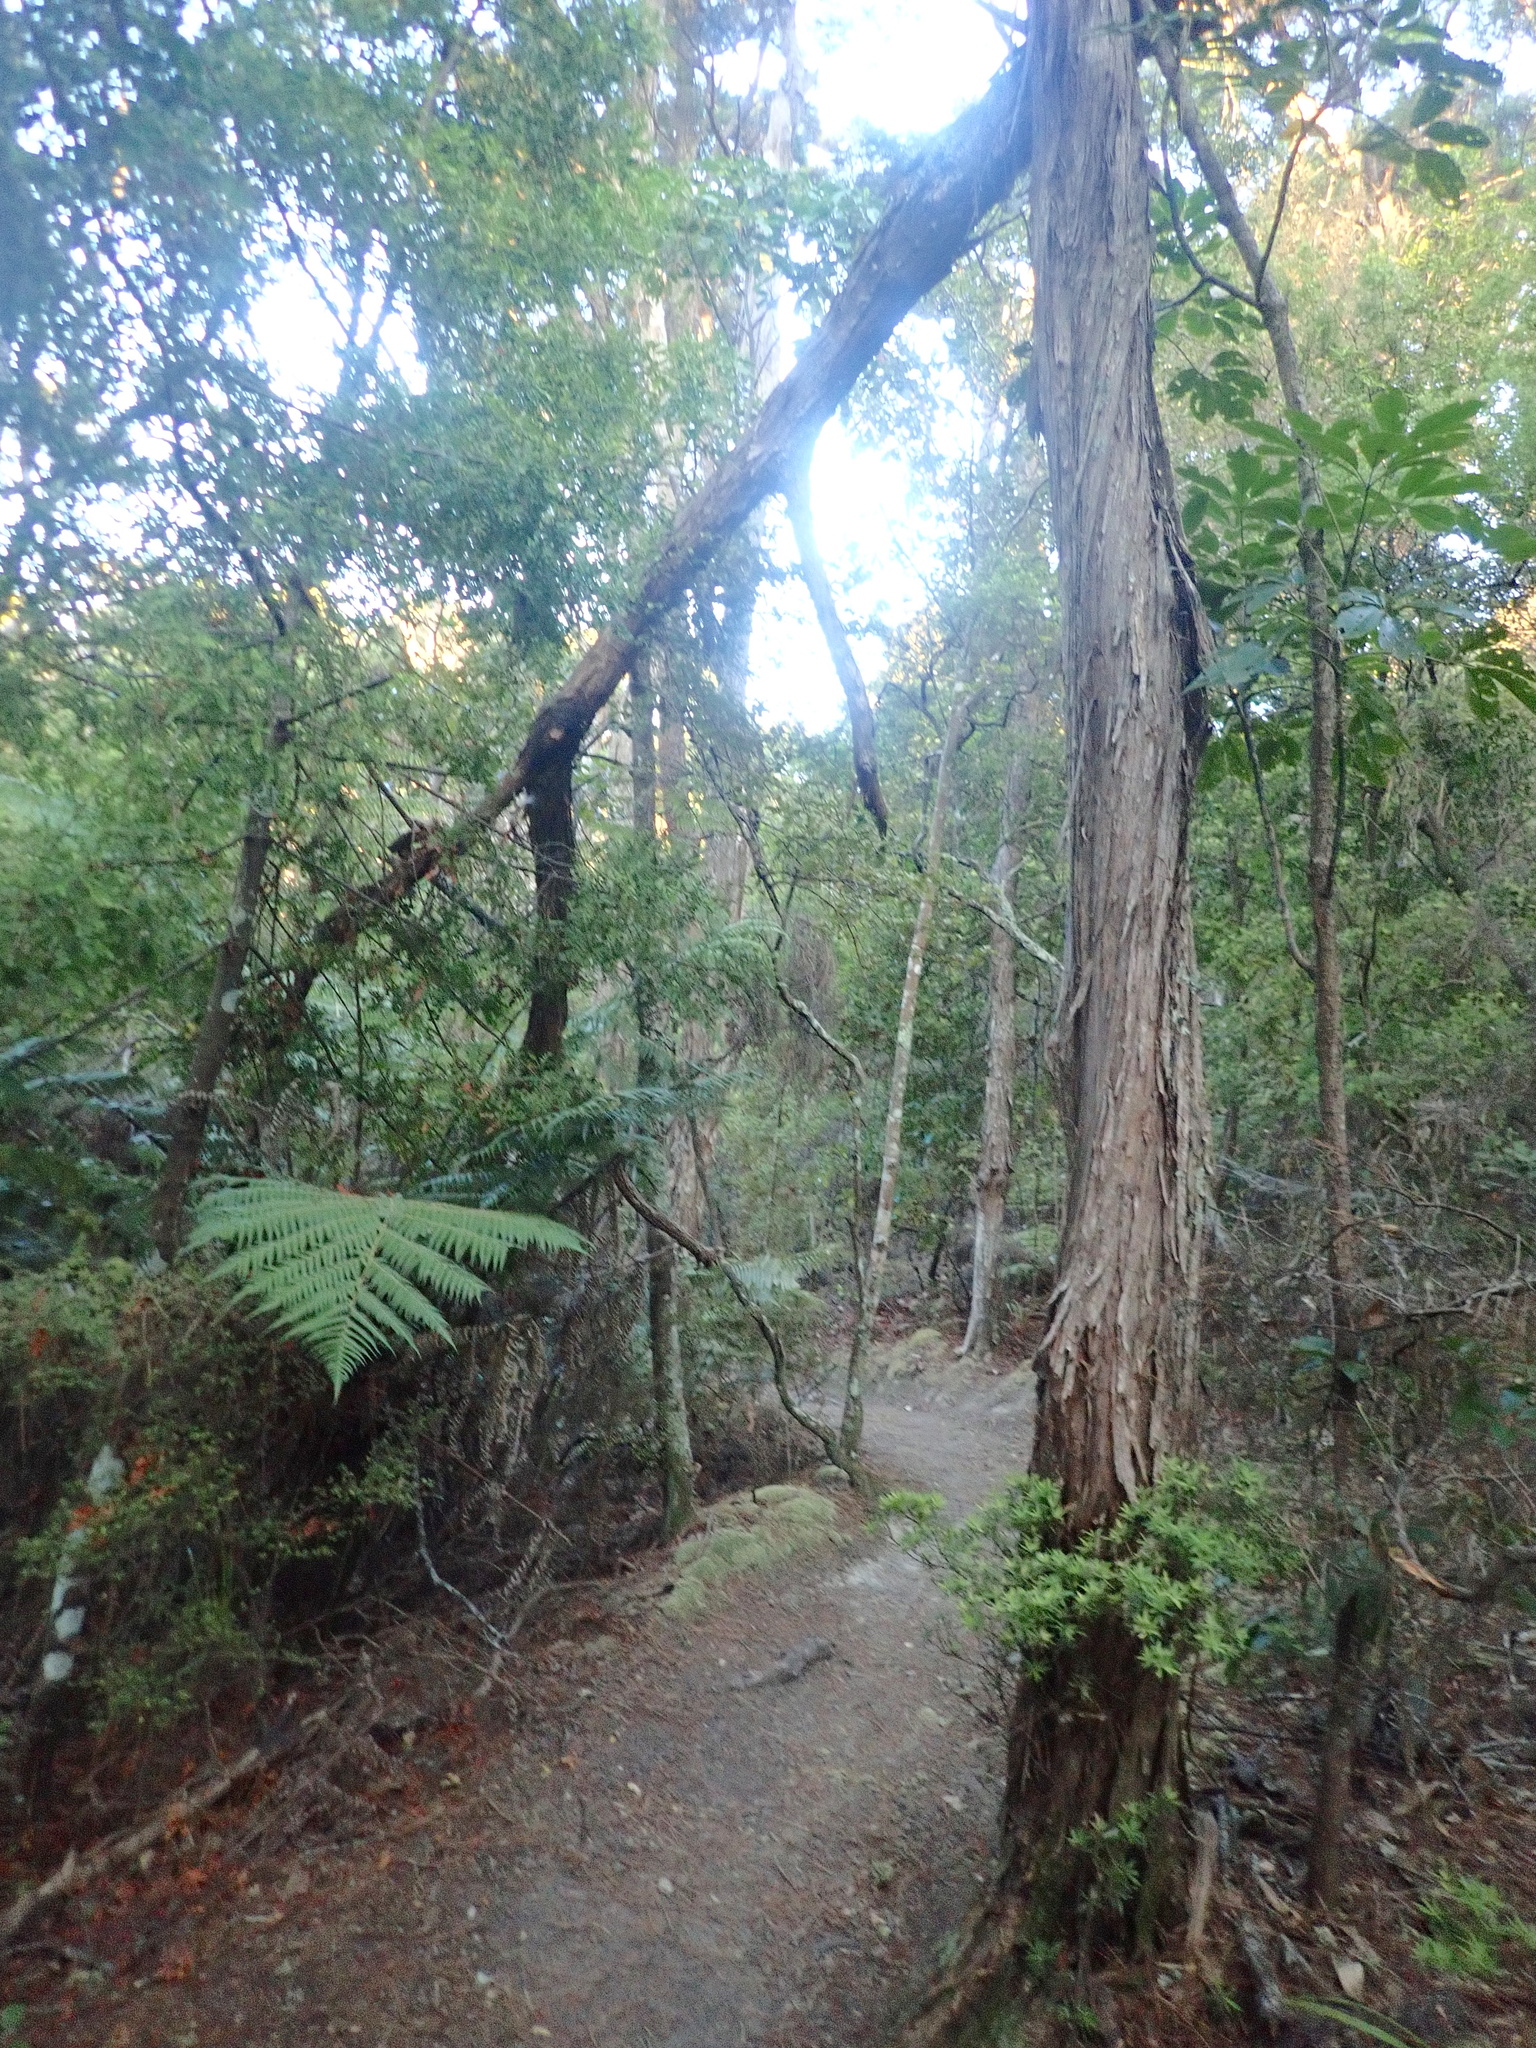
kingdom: Plantae
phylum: Tracheophyta
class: Magnoliopsida
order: Apiales
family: Araliaceae
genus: Neopanax
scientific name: Neopanax arboreus
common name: Five-fingers
